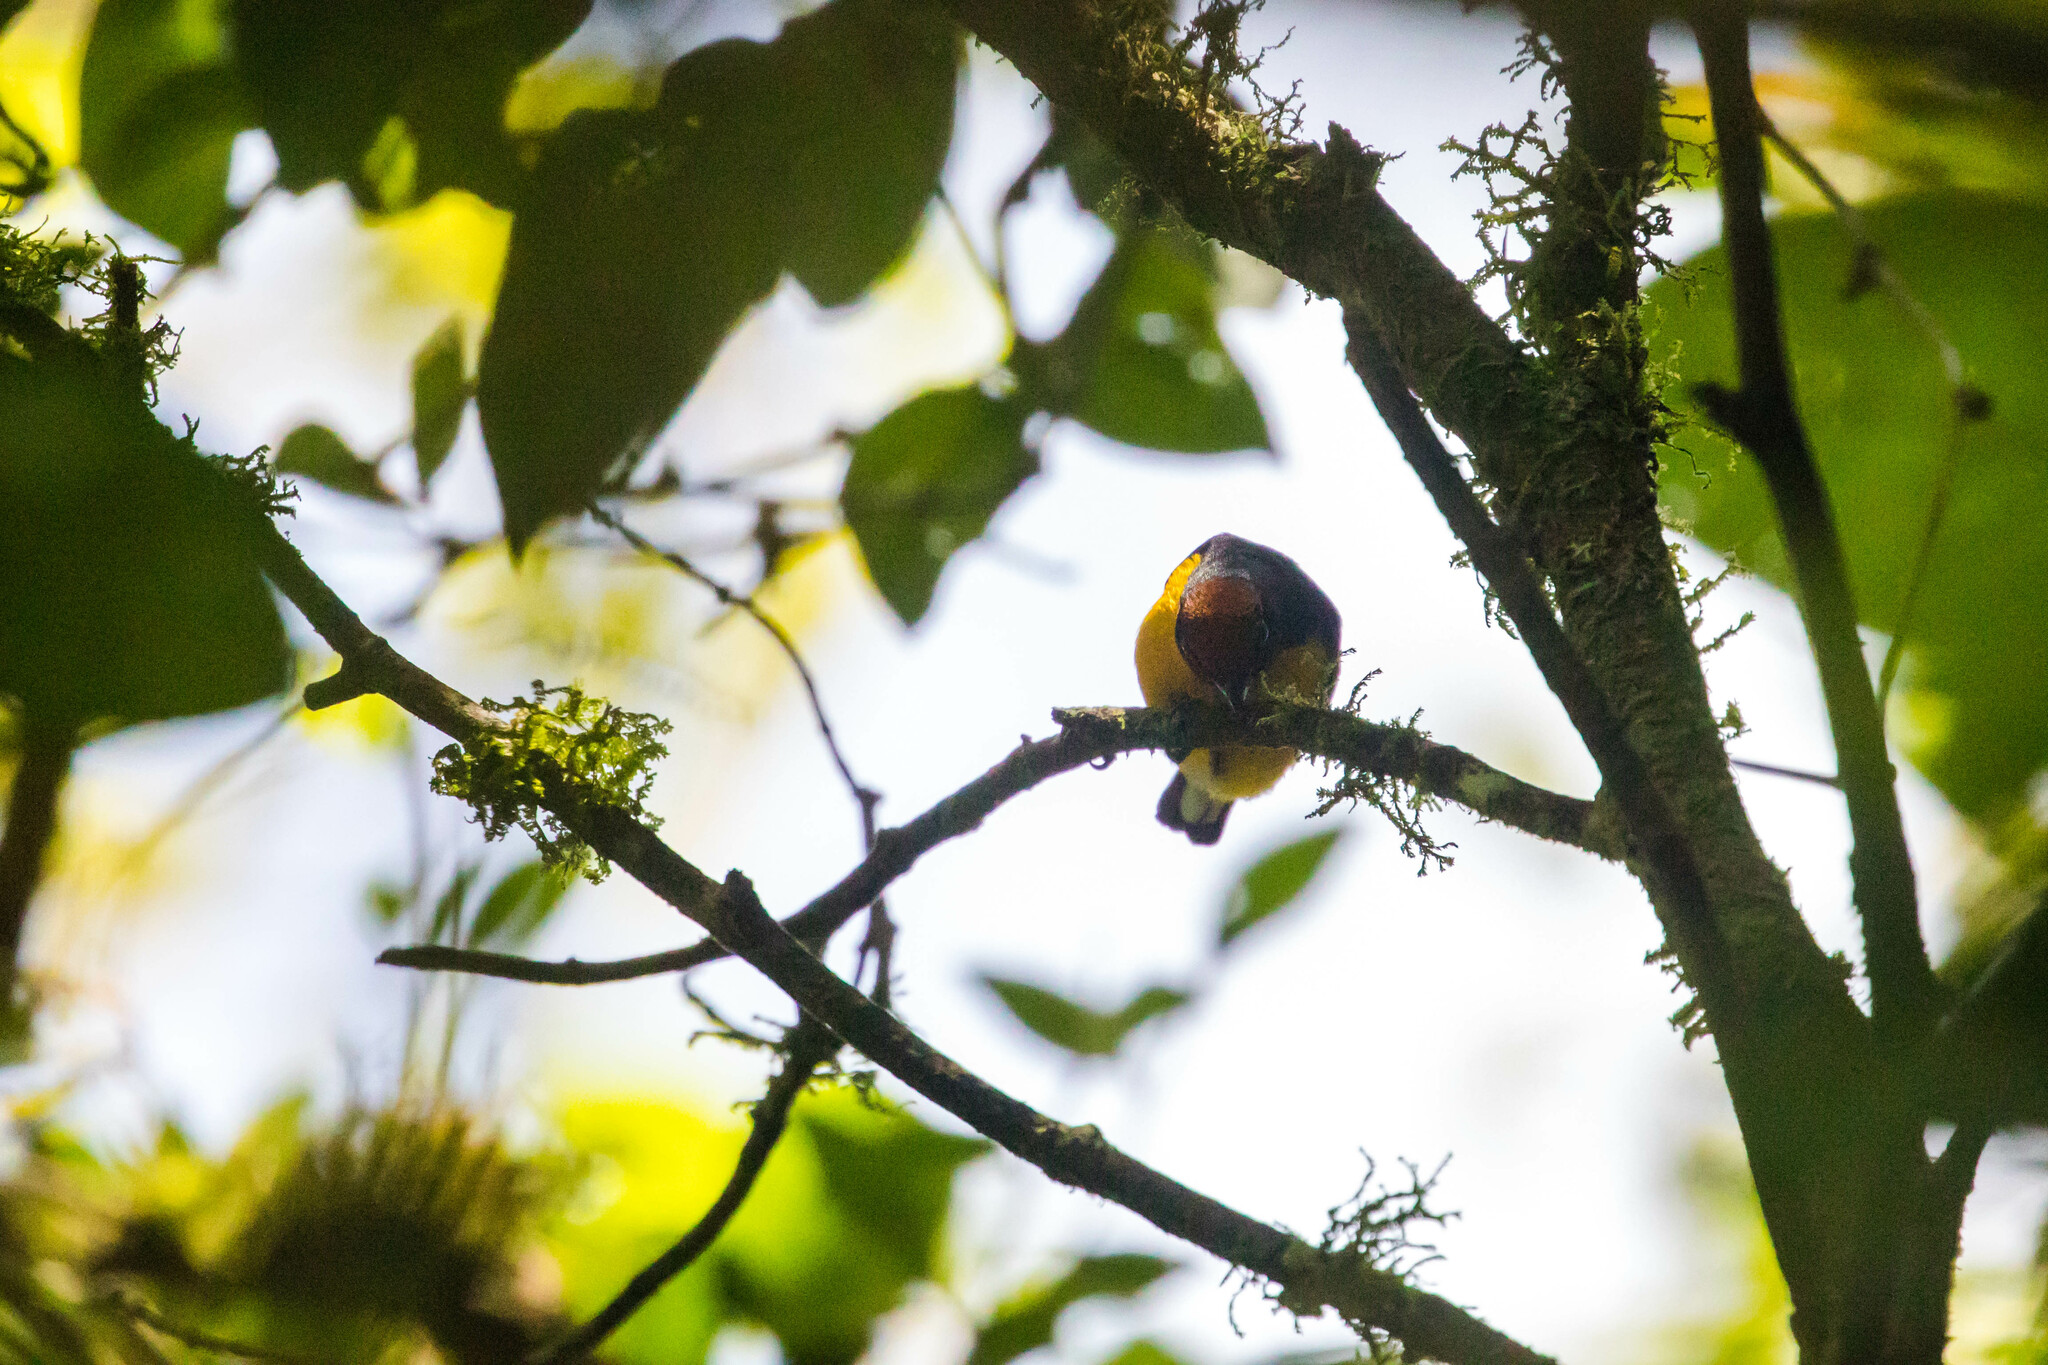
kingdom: Animalia
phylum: Chordata
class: Aves
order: Passeriformes
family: Fringillidae
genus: Euphonia
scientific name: Euphonia anneae
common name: Tawny-capped euphonia
